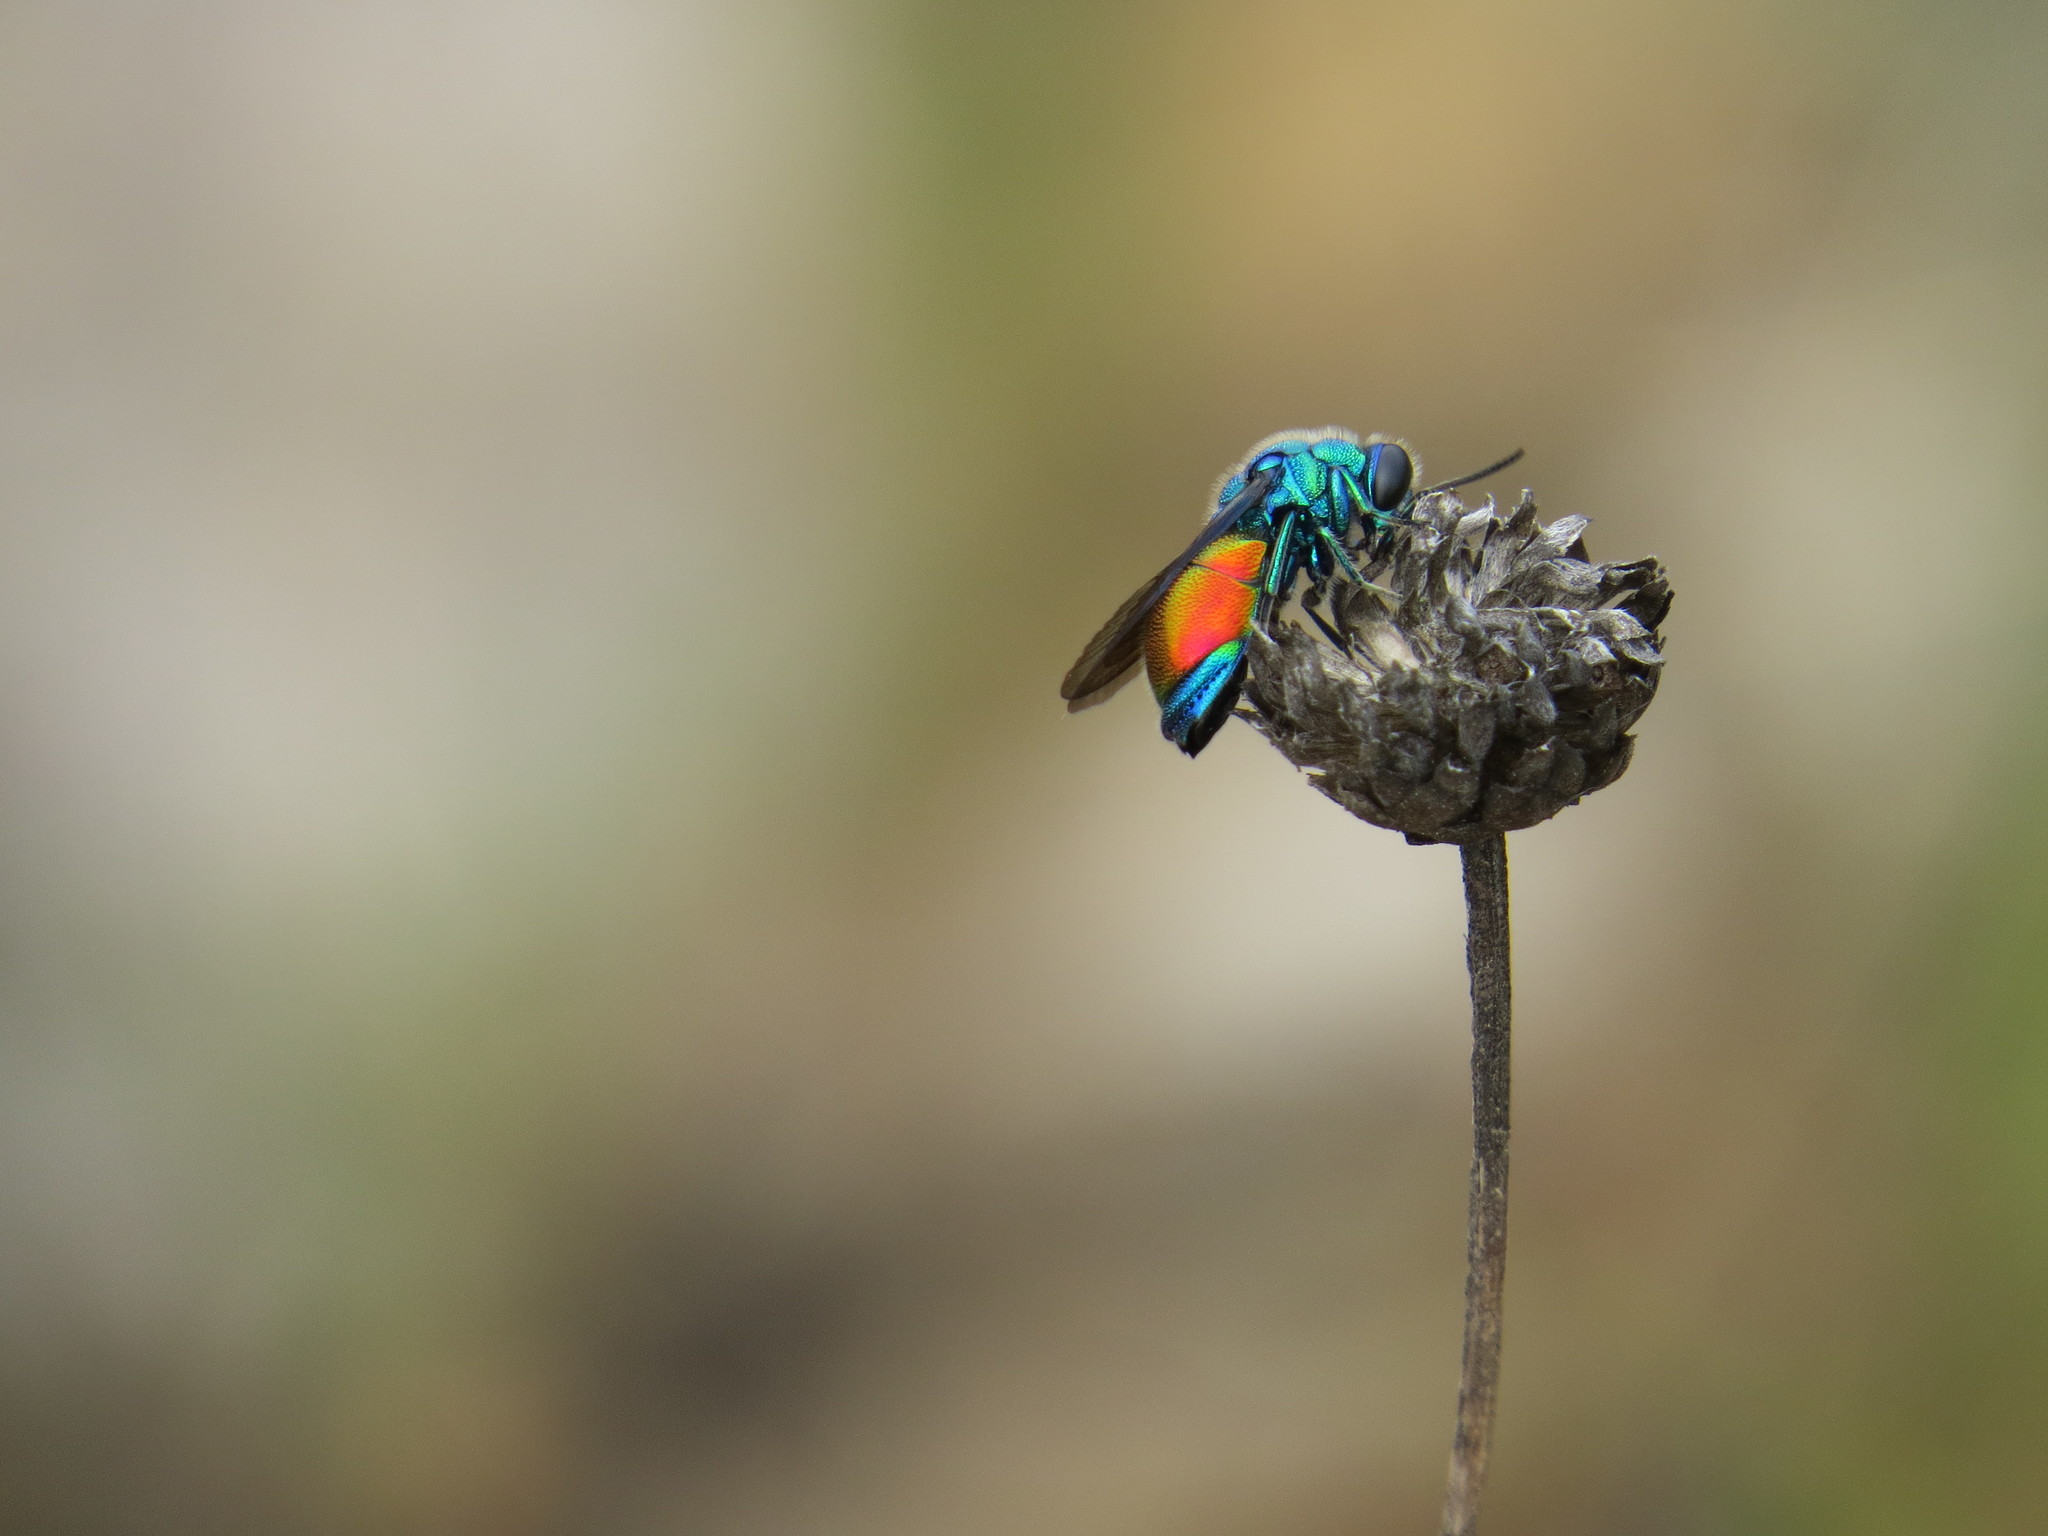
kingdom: Animalia
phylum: Arthropoda
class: Insecta
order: Hymenoptera
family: Chrysididae
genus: Stilbum
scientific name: Stilbum calens
